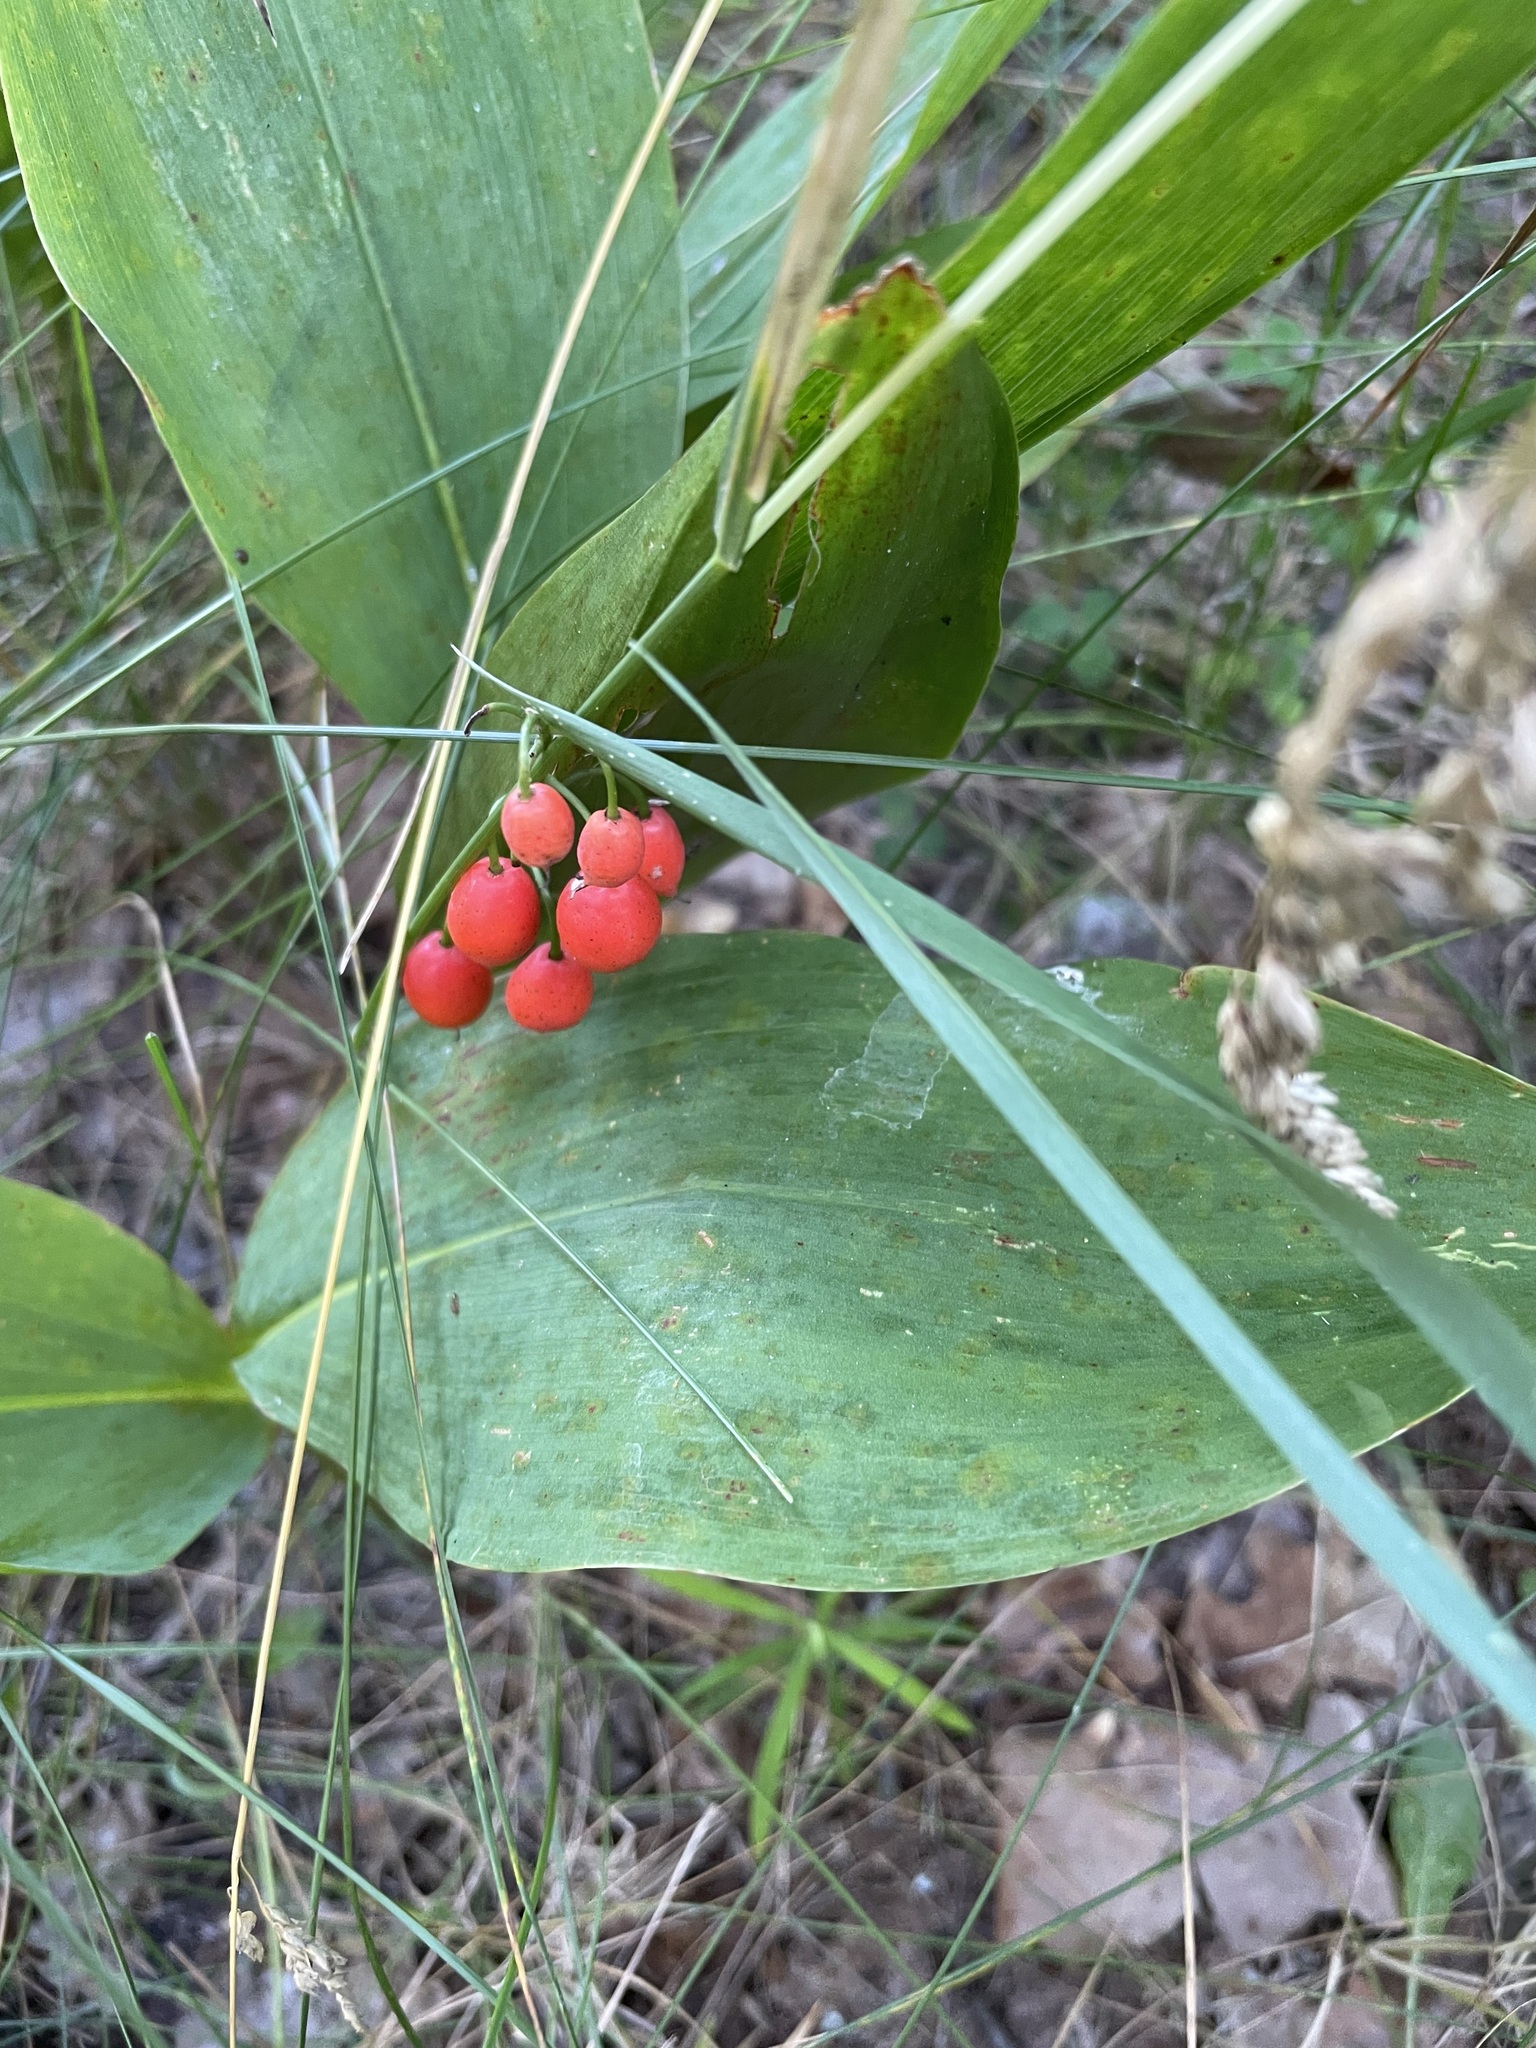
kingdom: Plantae
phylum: Tracheophyta
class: Liliopsida
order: Asparagales
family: Asparagaceae
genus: Convallaria
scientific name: Convallaria majalis
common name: Lily-of-the-valley
